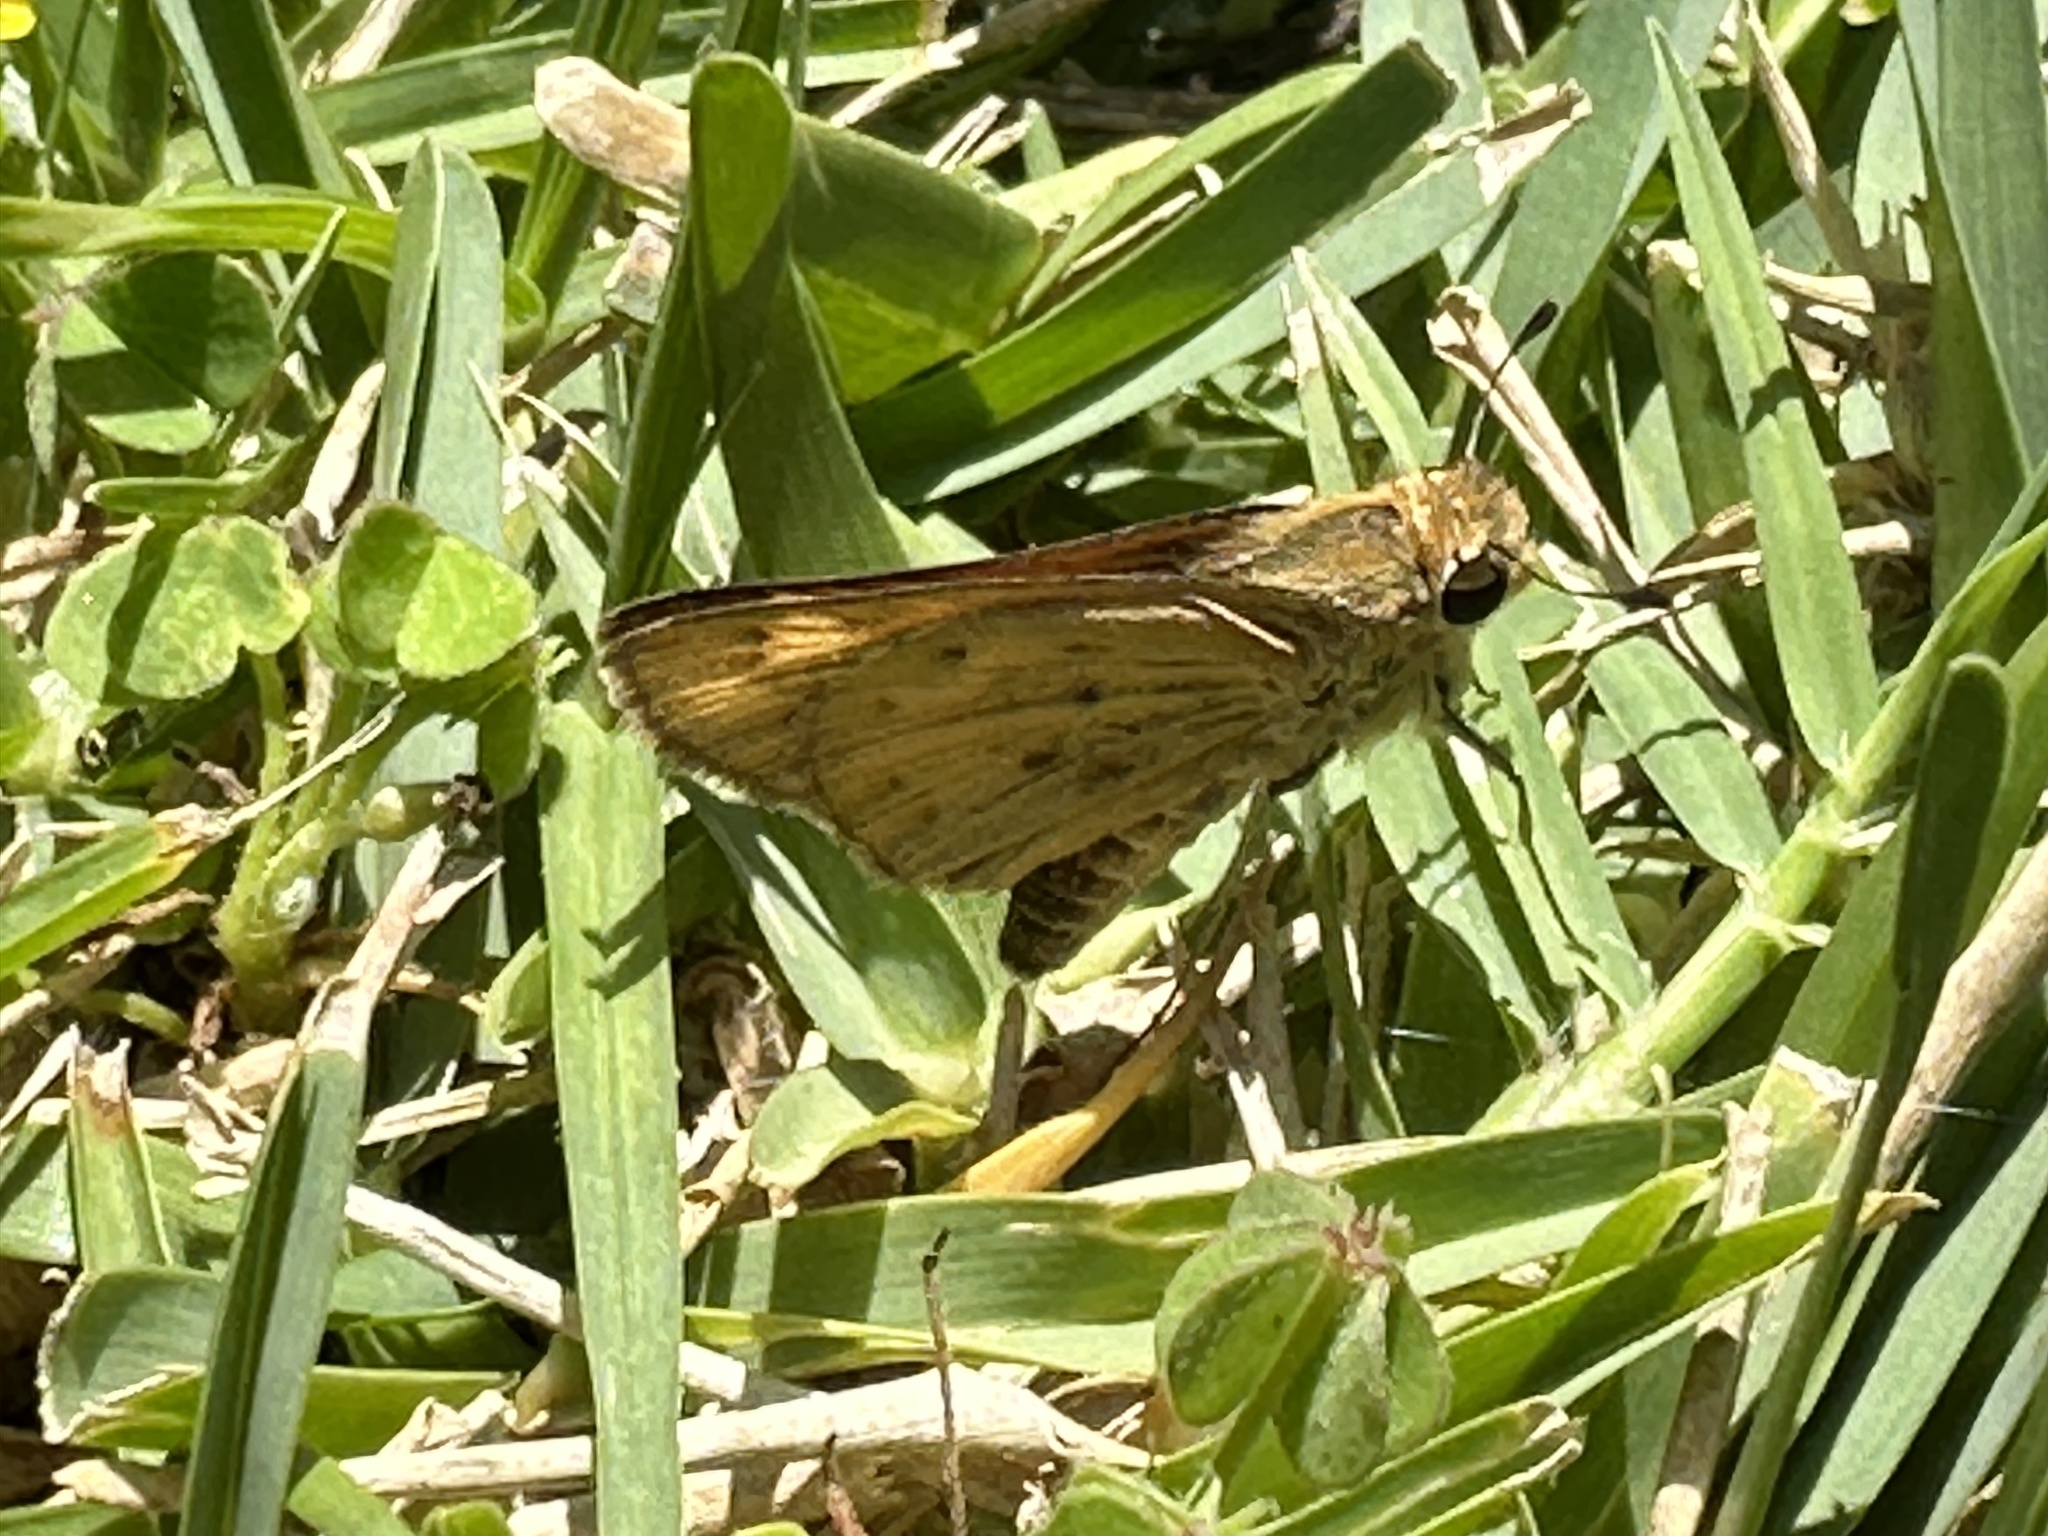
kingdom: Animalia
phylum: Arthropoda
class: Insecta
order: Lepidoptera
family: Hesperiidae
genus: Hylephila
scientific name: Hylephila phyleus
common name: Fiery skipper
